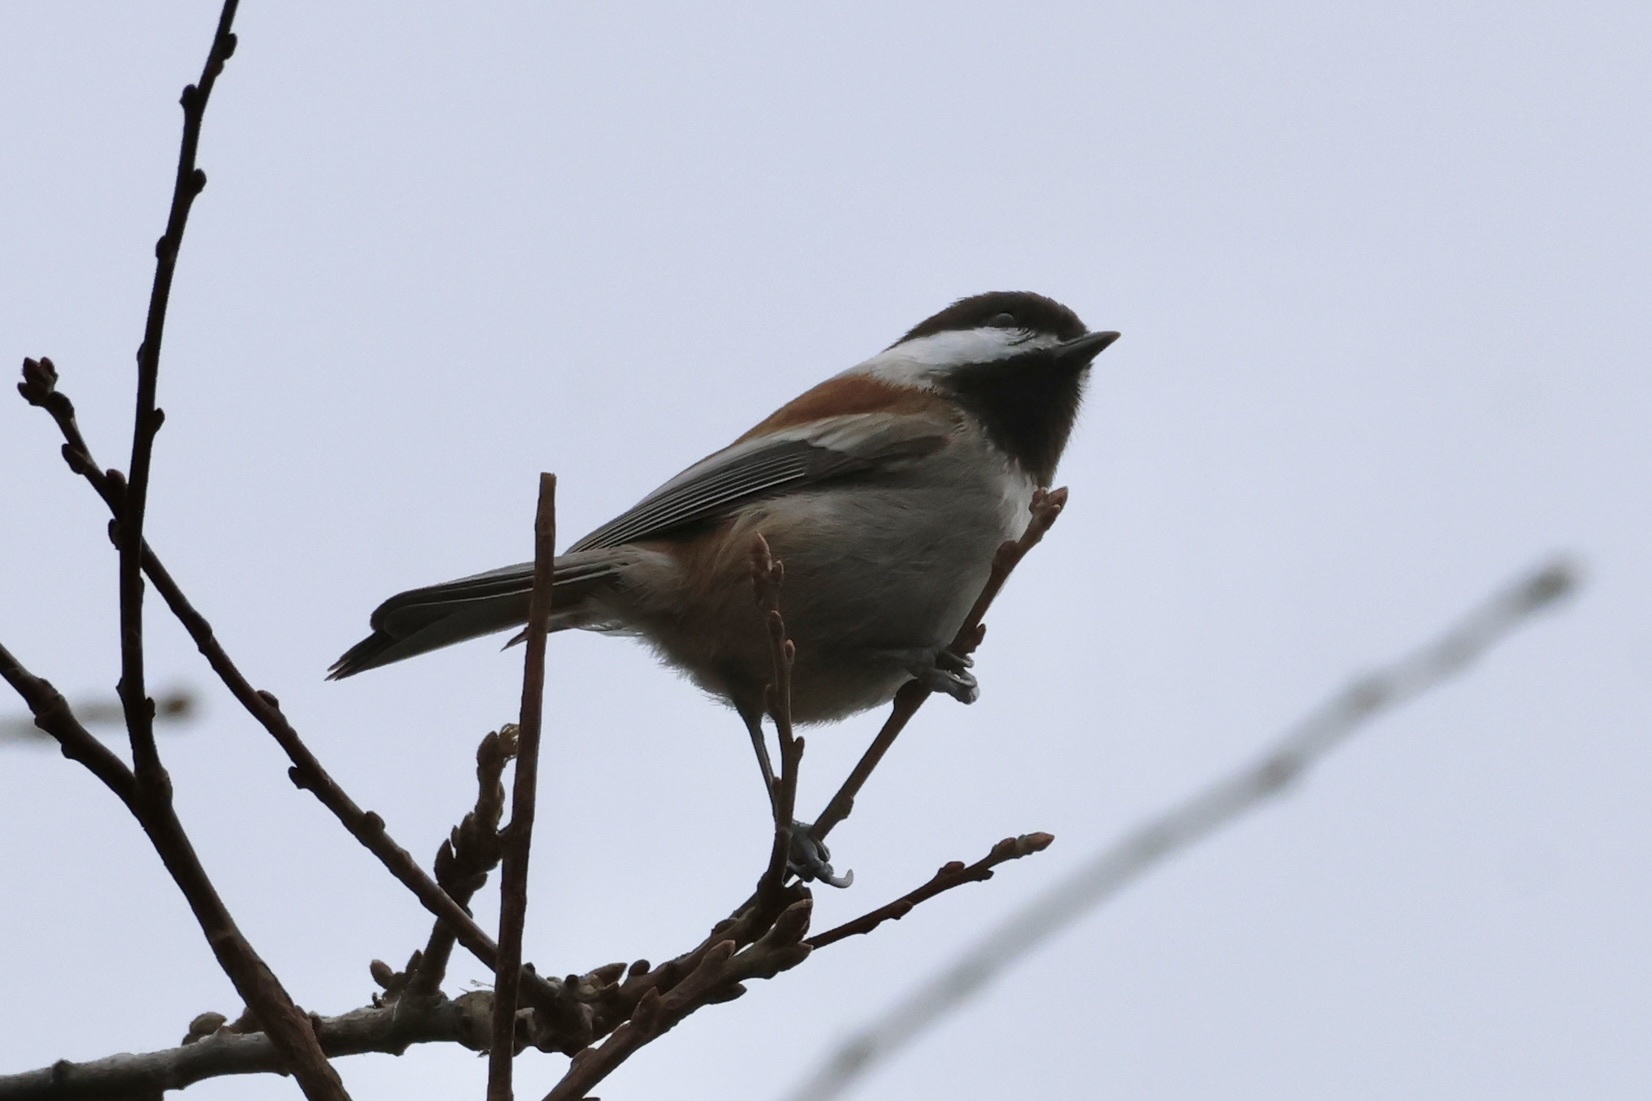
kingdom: Animalia
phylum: Chordata
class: Aves
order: Passeriformes
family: Paridae
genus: Poecile
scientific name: Poecile rufescens
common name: Chestnut-backed chickadee
